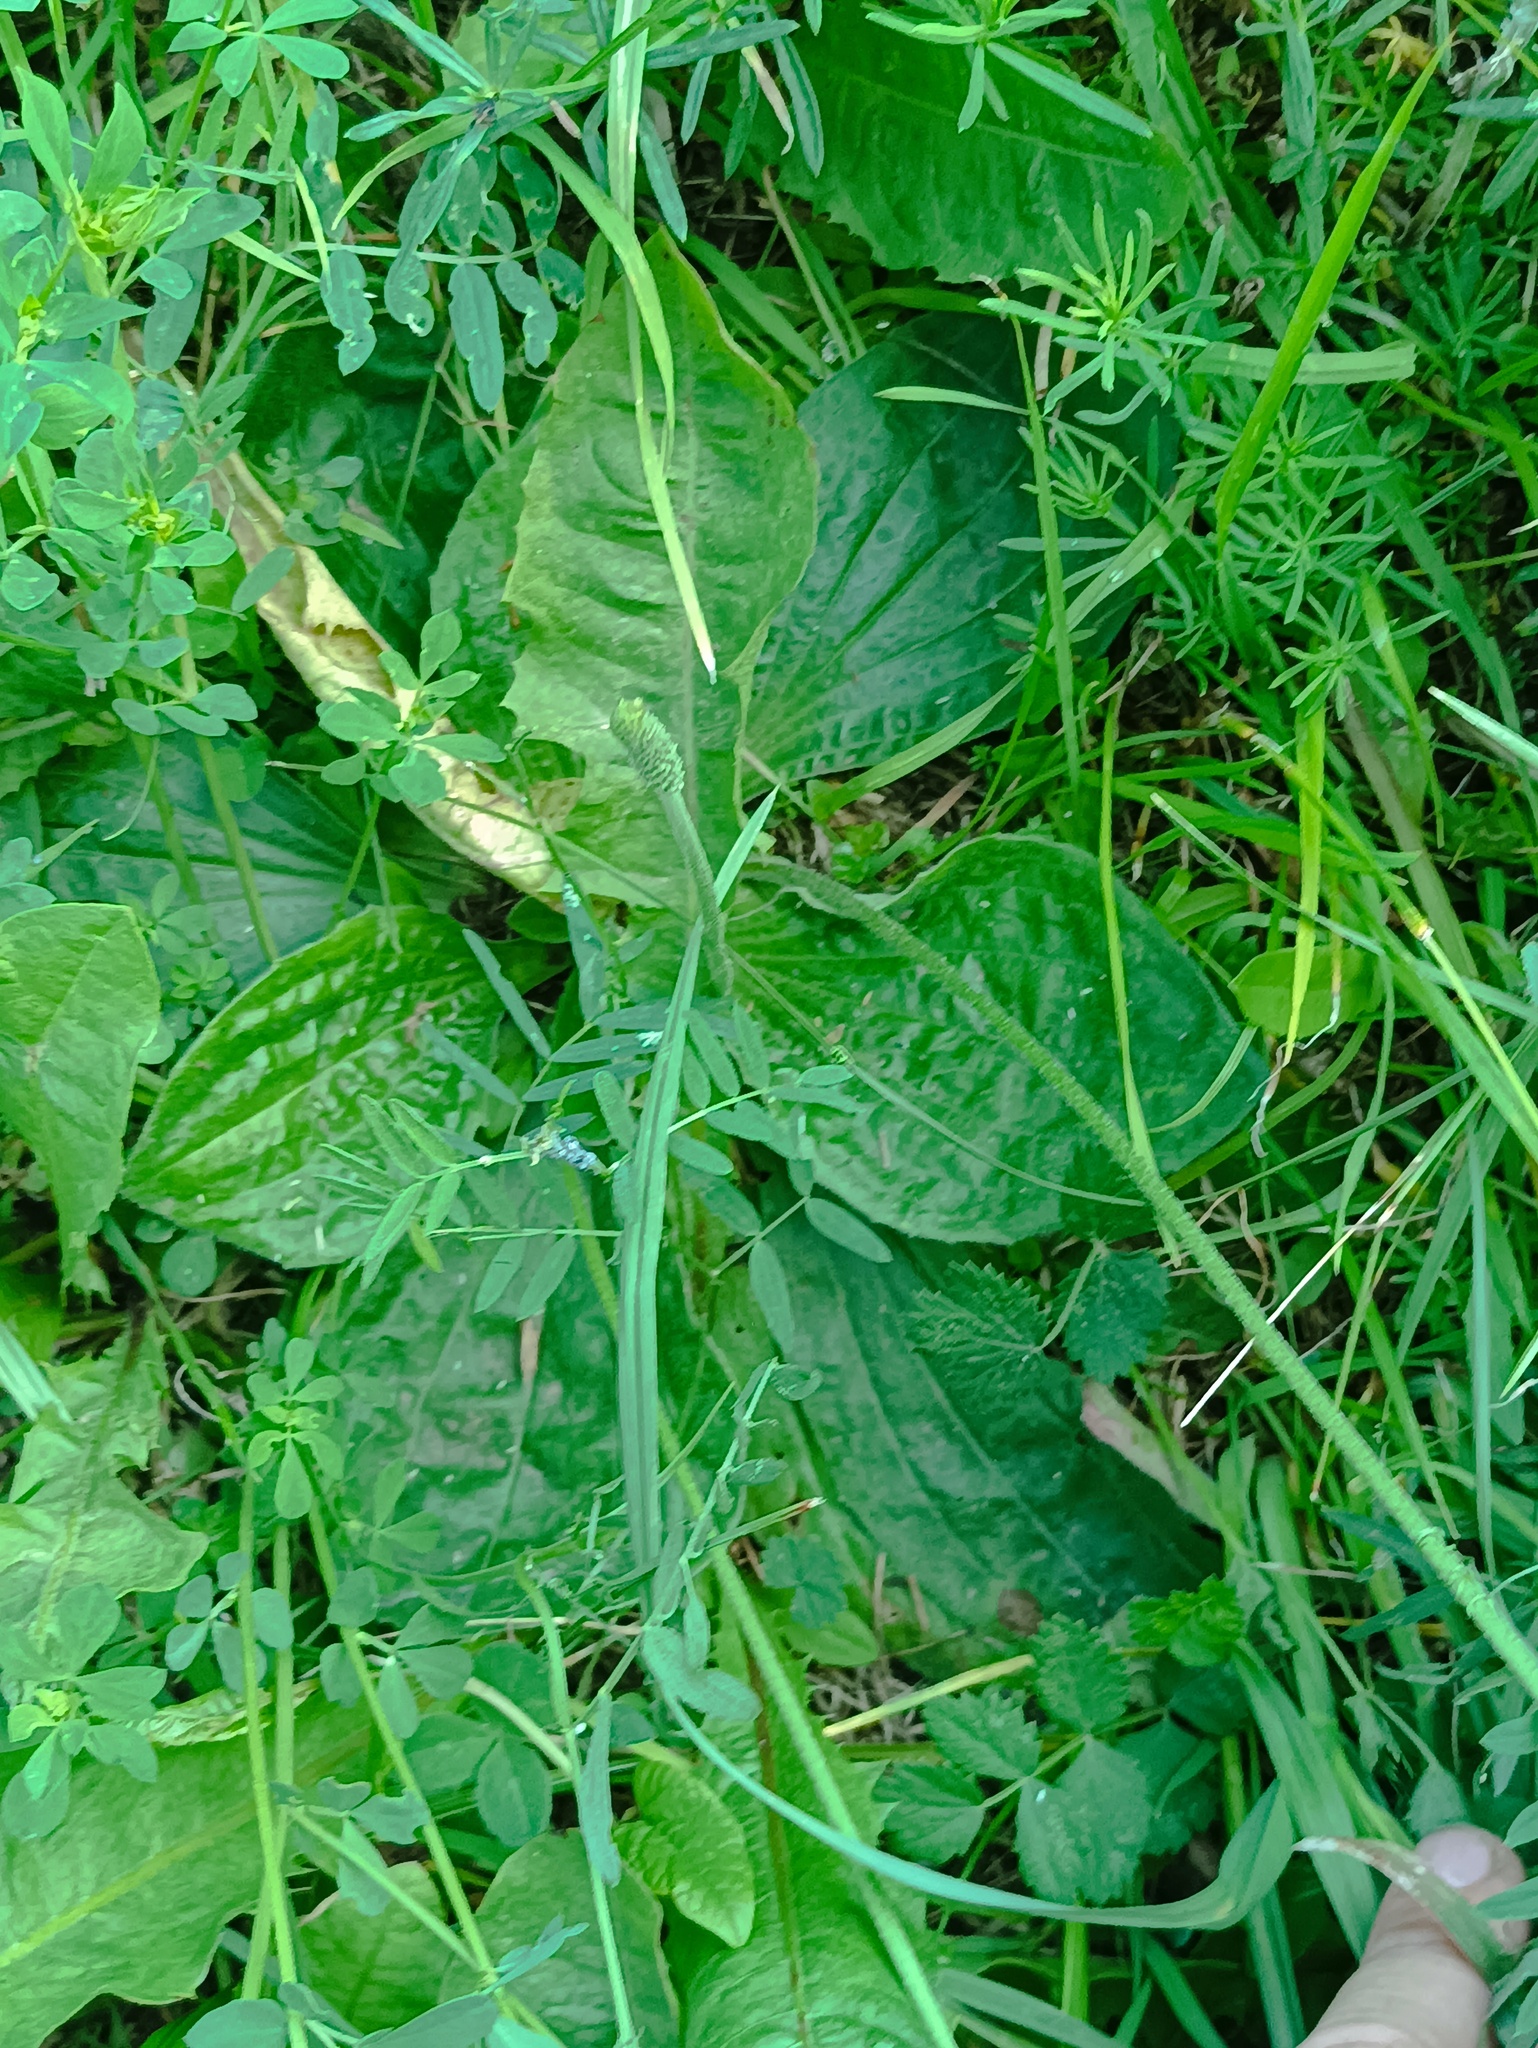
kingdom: Plantae
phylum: Tracheophyta
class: Magnoliopsida
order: Lamiales
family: Plantaginaceae
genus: Plantago
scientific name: Plantago media
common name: Hoary plantain
